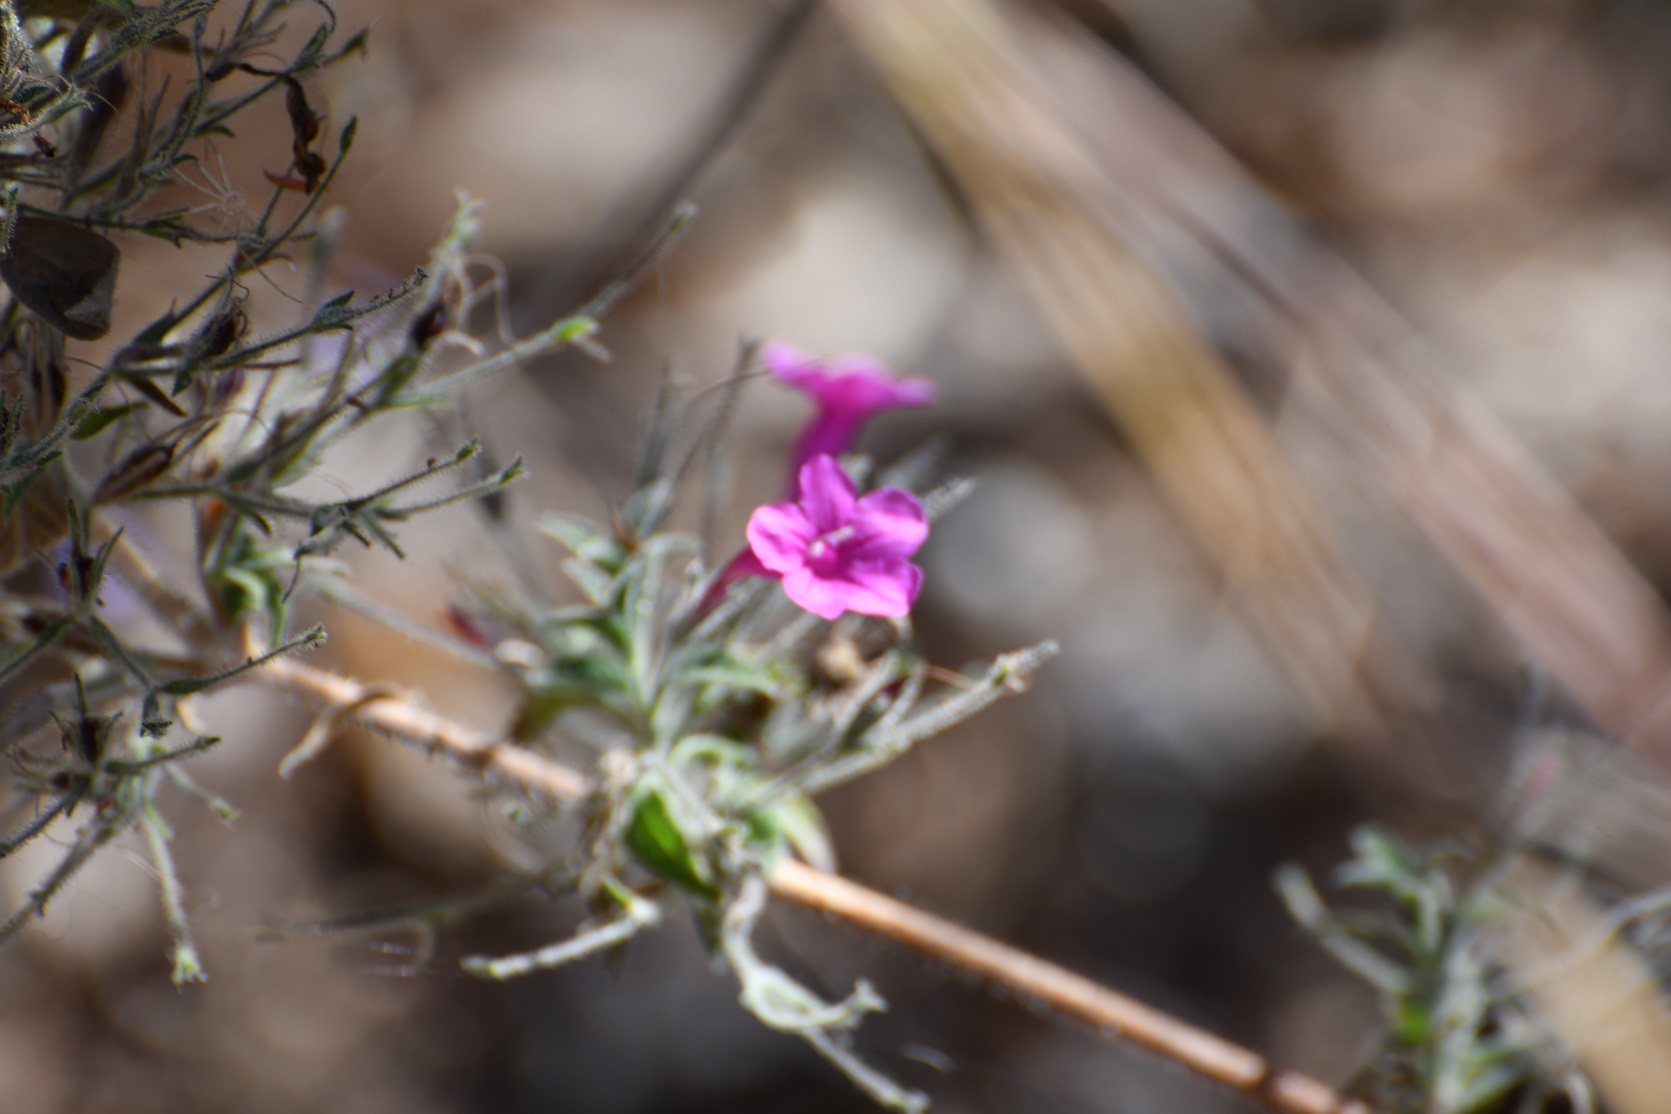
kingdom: Plantae
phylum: Tracheophyta
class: Magnoliopsida
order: Lamiales
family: Acanthaceae
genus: Ruellia
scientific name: Ruellia inundata
